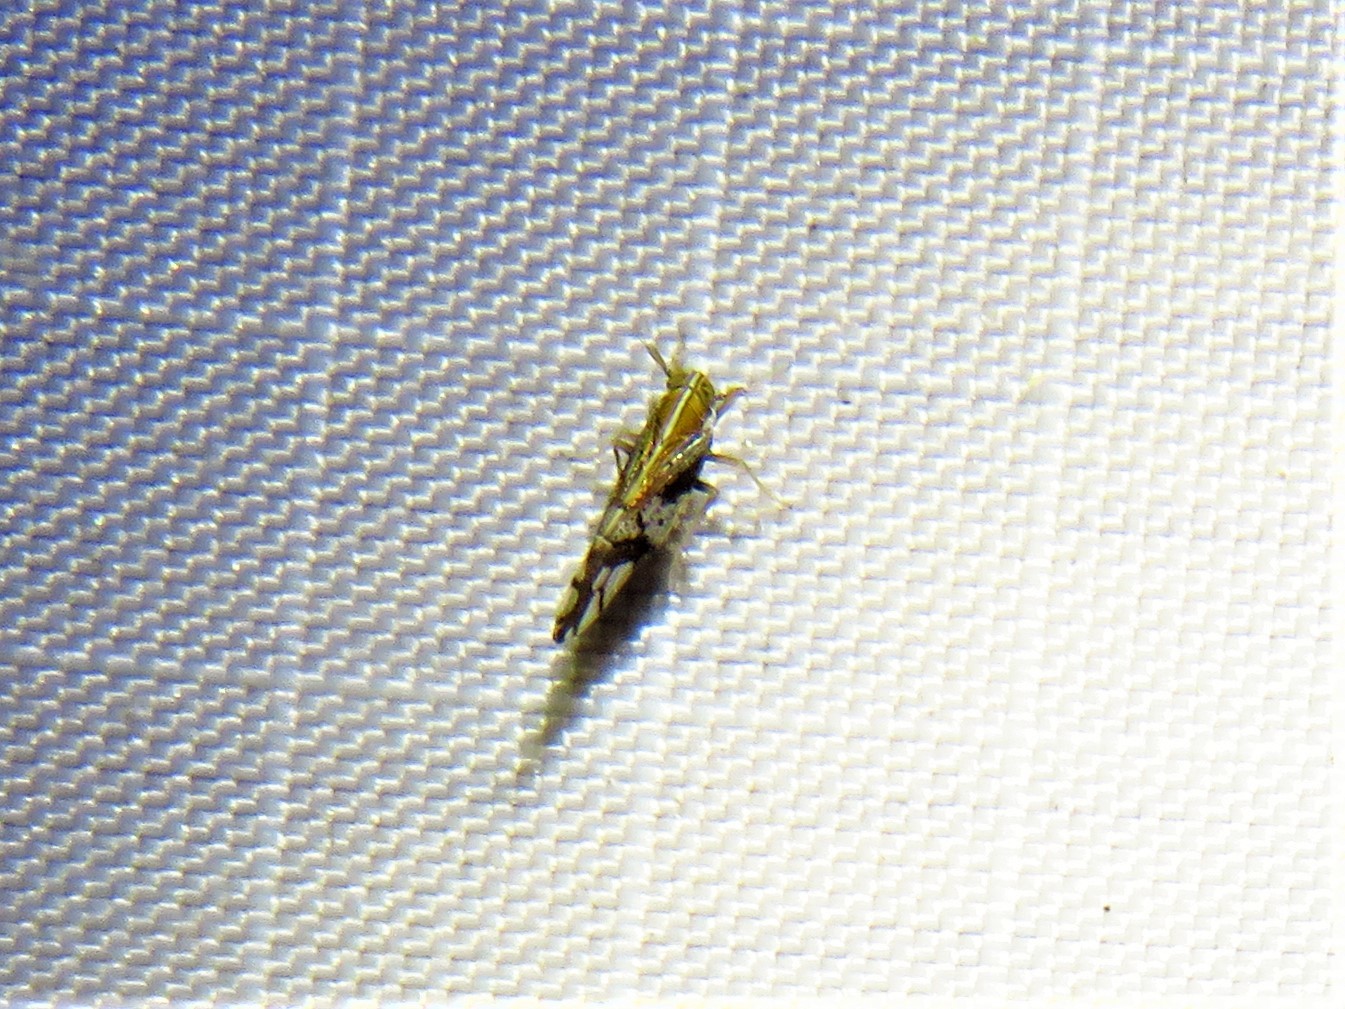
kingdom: Animalia
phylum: Arthropoda
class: Insecta
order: Hemiptera
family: Delphacidae
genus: Liburniella
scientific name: Liburniella ornata
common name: Ornate planthopper
